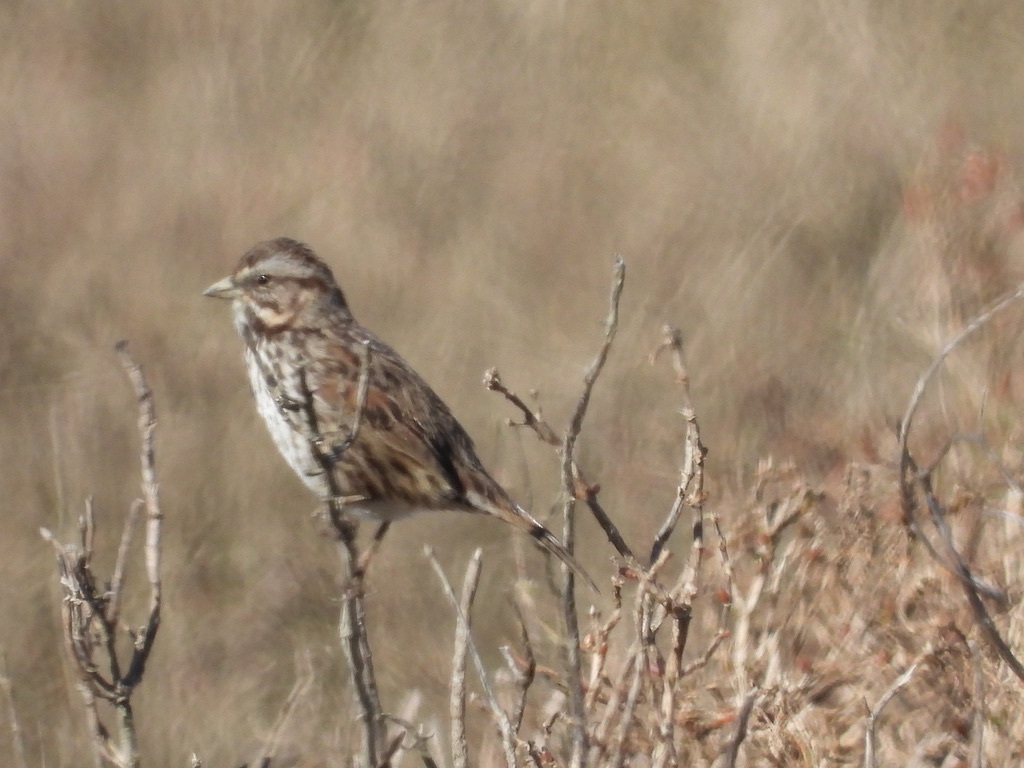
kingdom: Animalia
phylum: Chordata
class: Aves
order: Passeriformes
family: Passerellidae
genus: Melospiza
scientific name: Melospiza melodia
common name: Song sparrow
